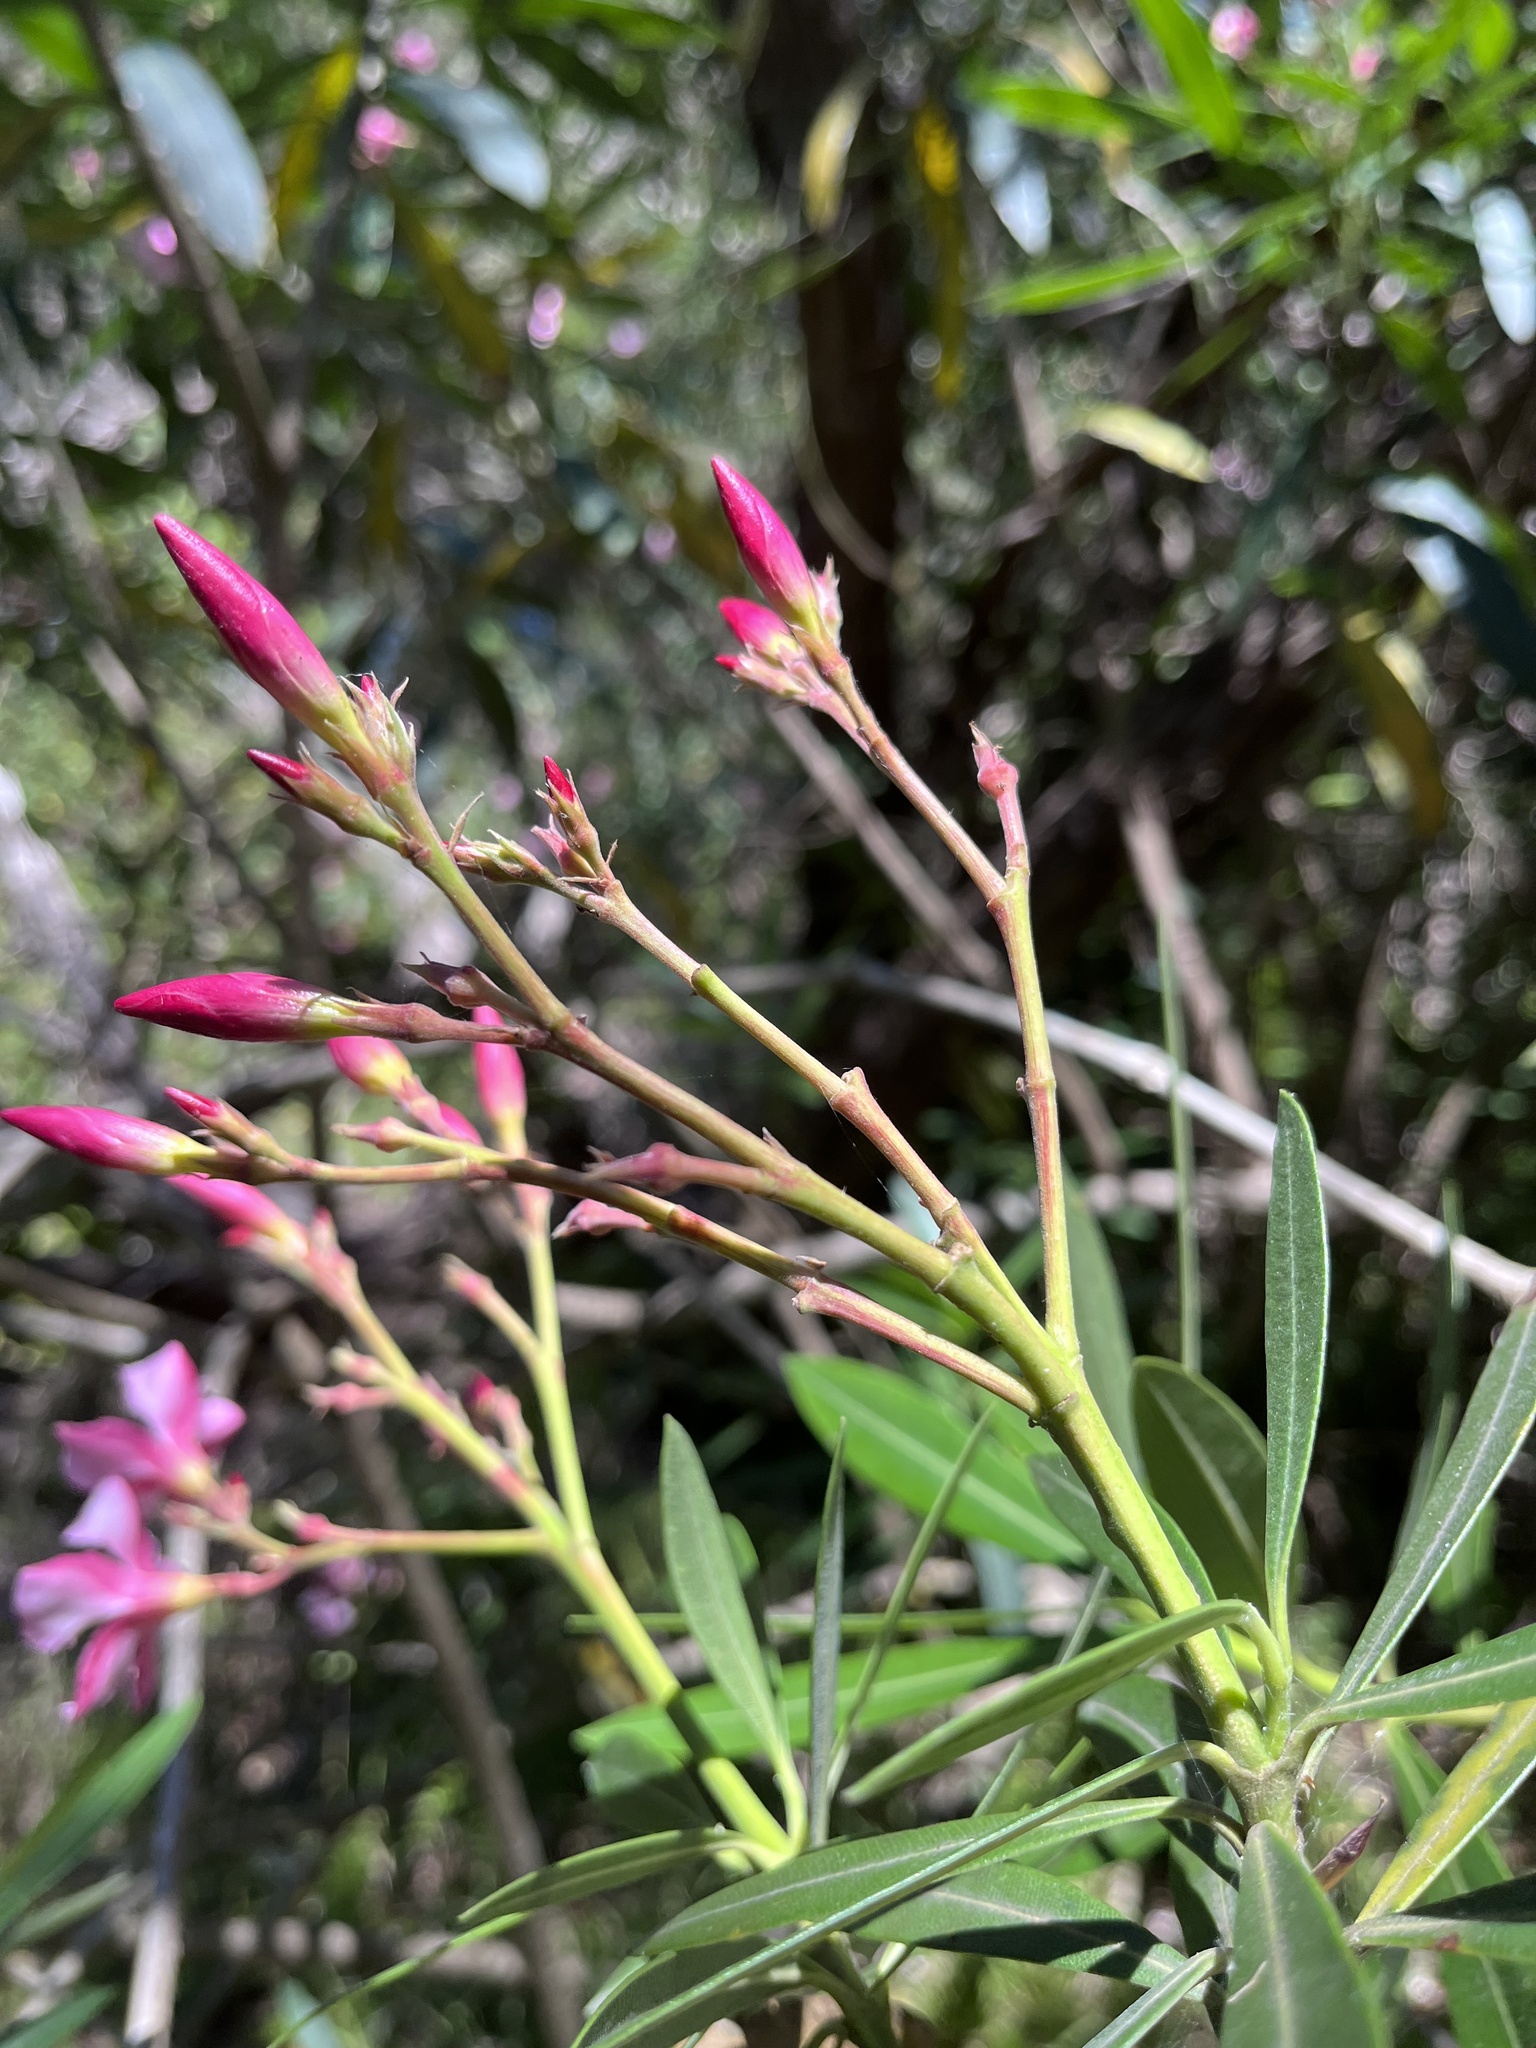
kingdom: Plantae
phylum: Tracheophyta
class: Magnoliopsida
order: Gentianales
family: Apocynaceae
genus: Nerium
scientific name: Nerium oleander
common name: Oleander
